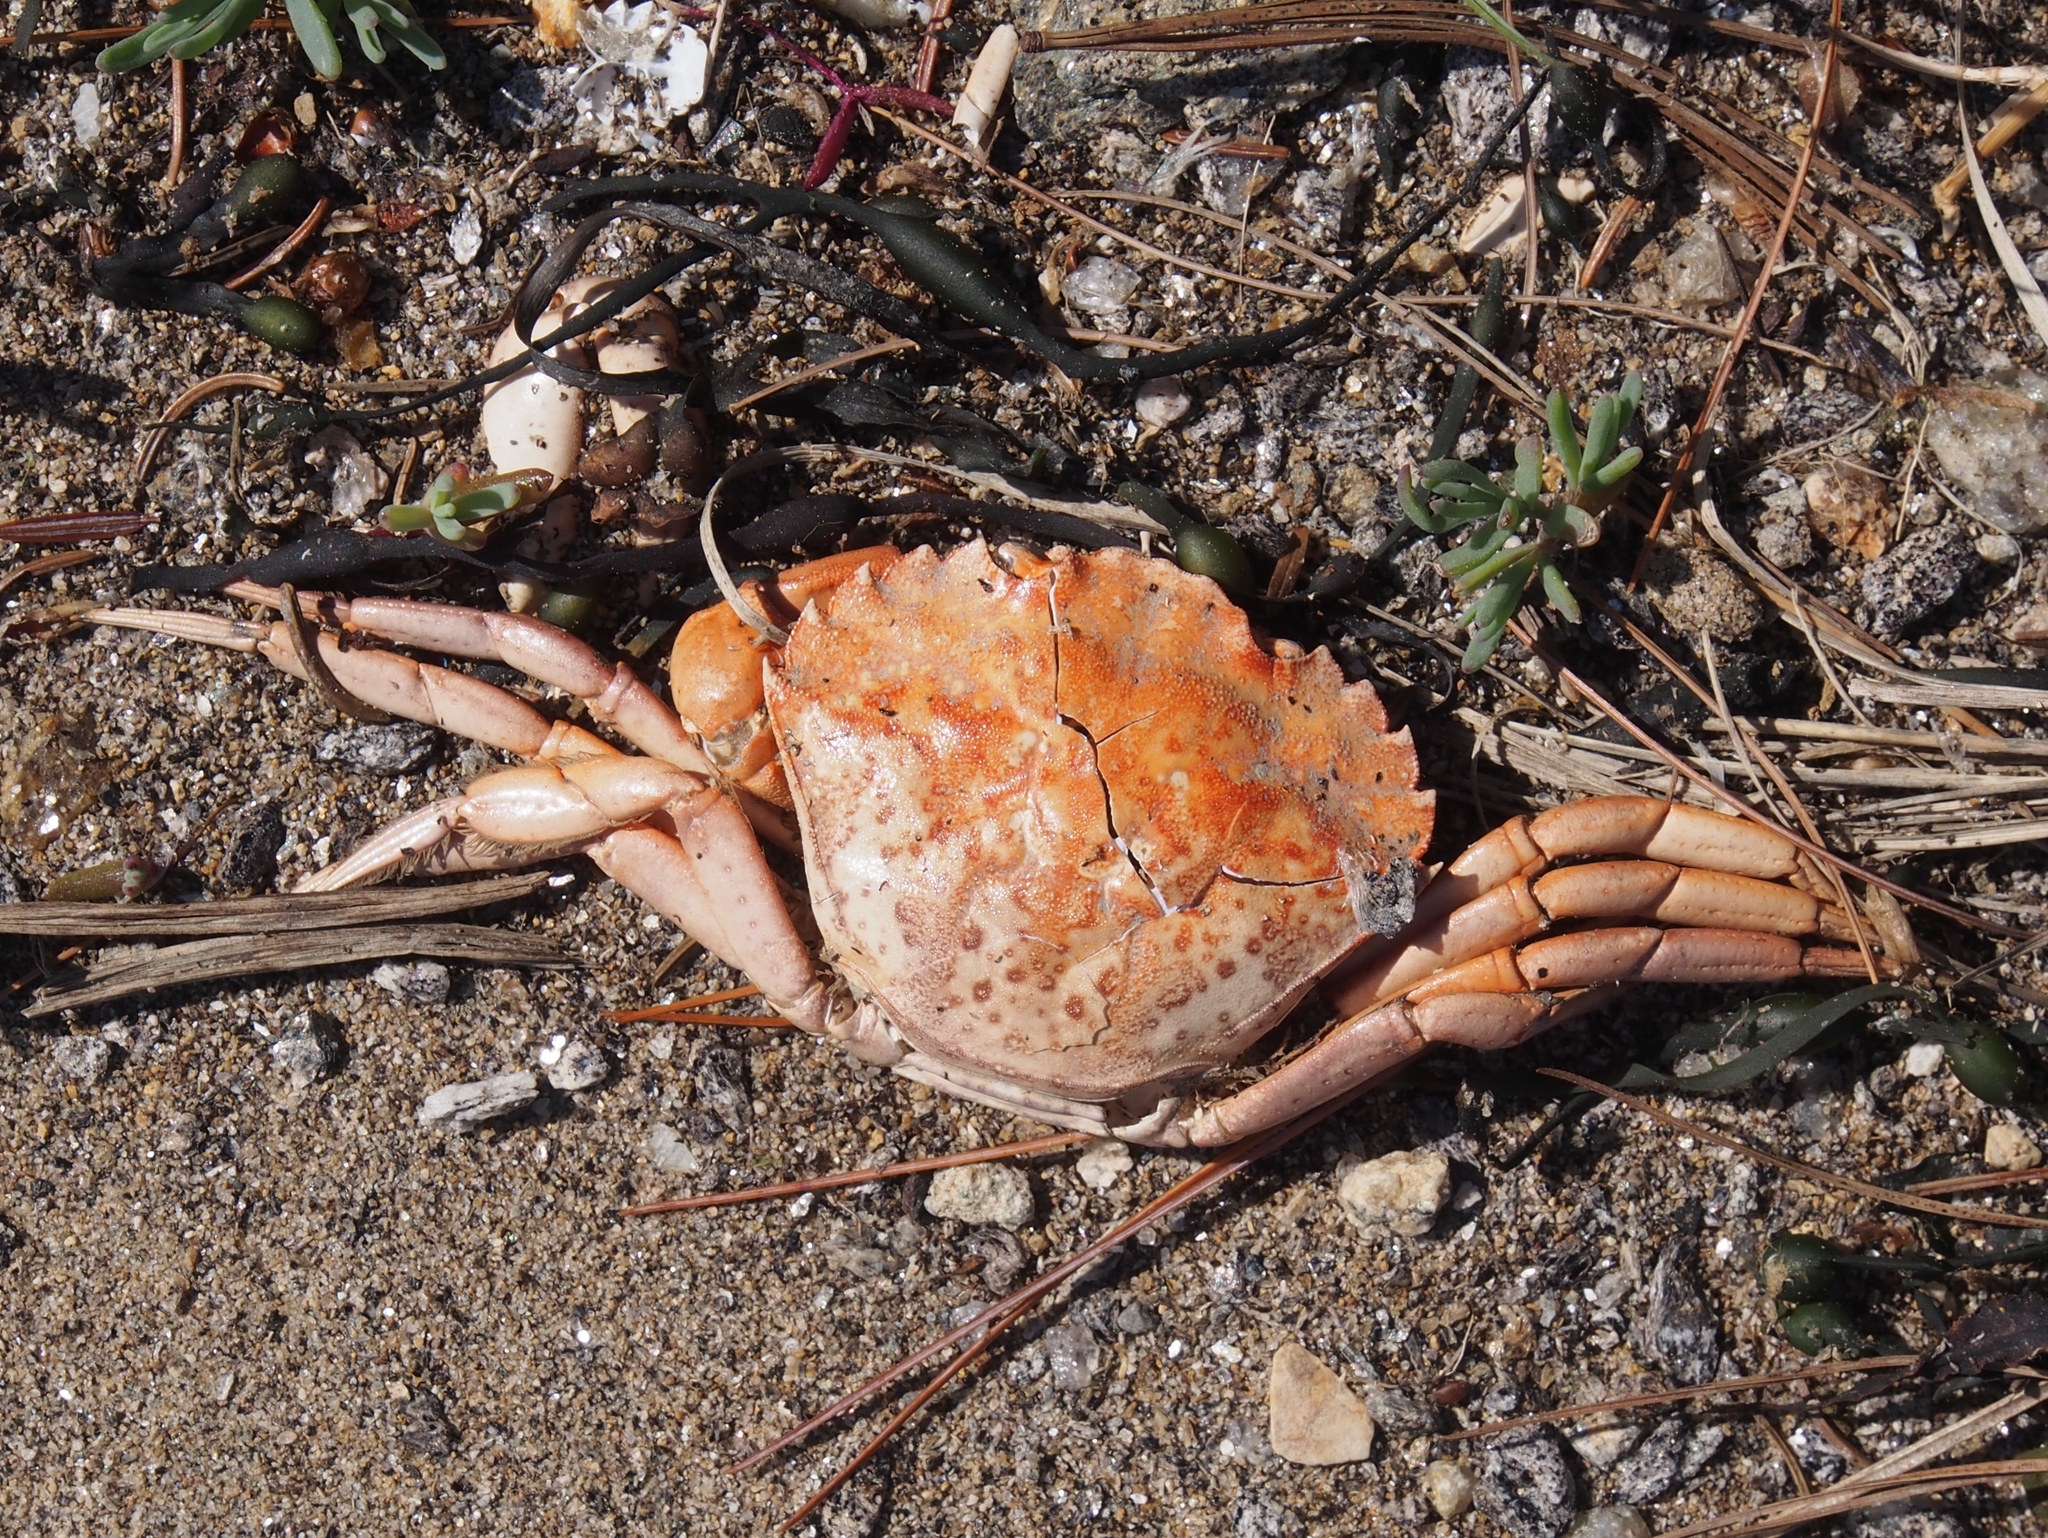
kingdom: Animalia
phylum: Arthropoda
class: Malacostraca
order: Decapoda
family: Carcinidae
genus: Carcinus
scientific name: Carcinus maenas
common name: European green crab
